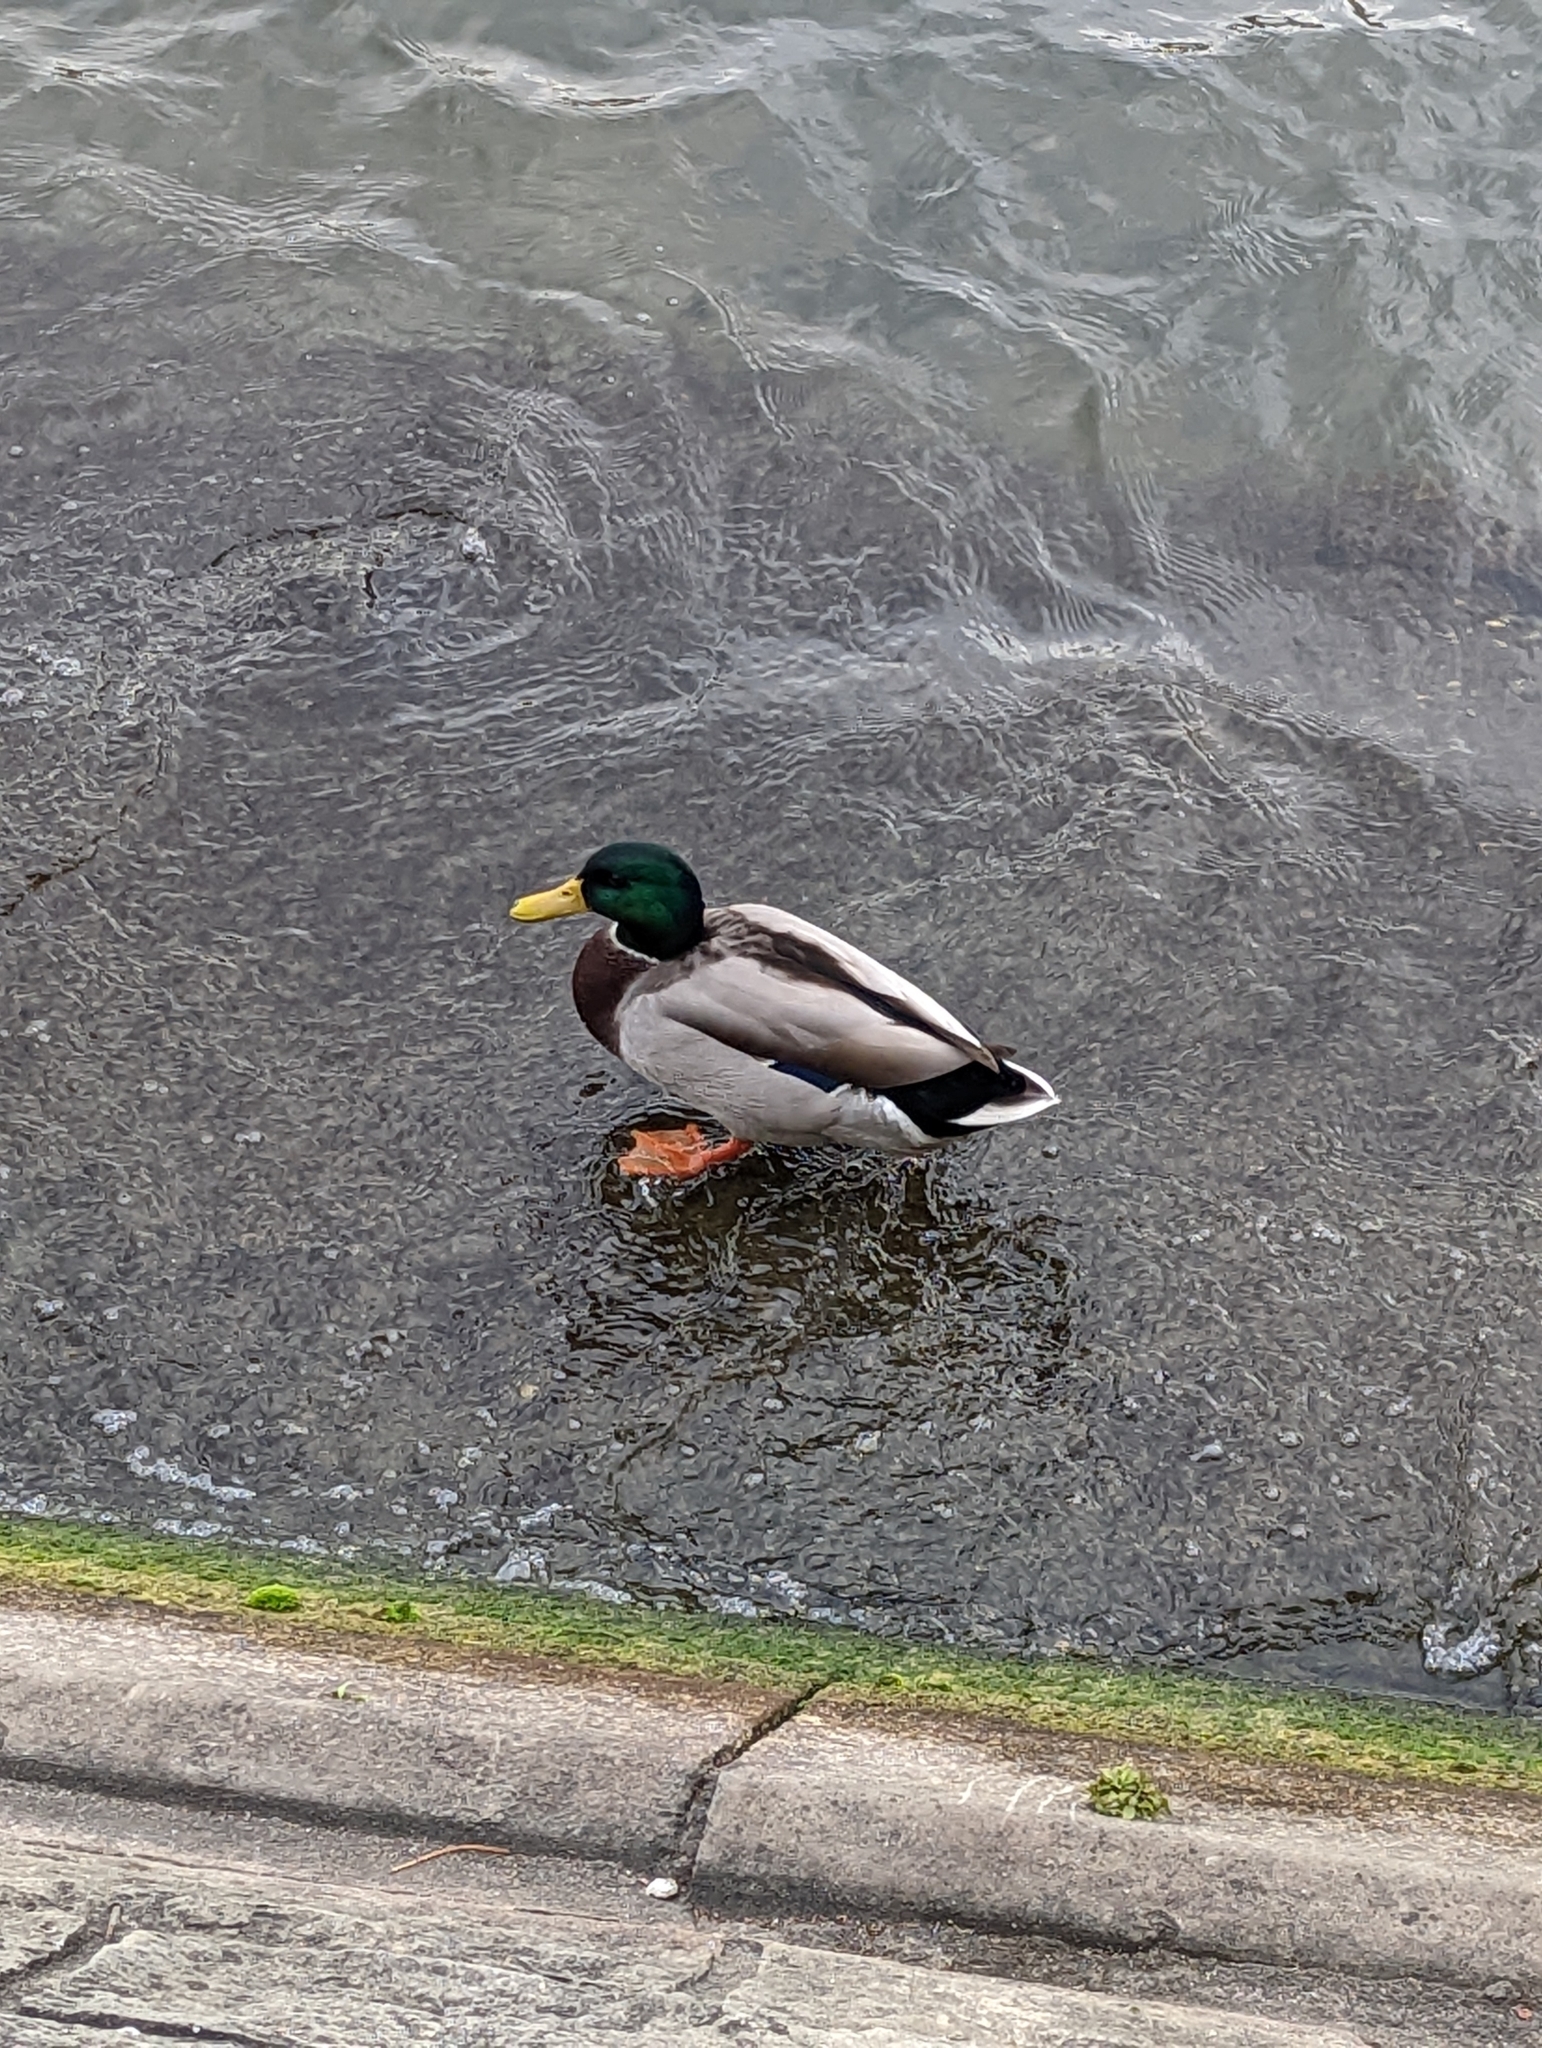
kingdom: Animalia
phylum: Chordata
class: Aves
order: Anseriformes
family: Anatidae
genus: Anas
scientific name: Anas platyrhynchos
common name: Mallard
